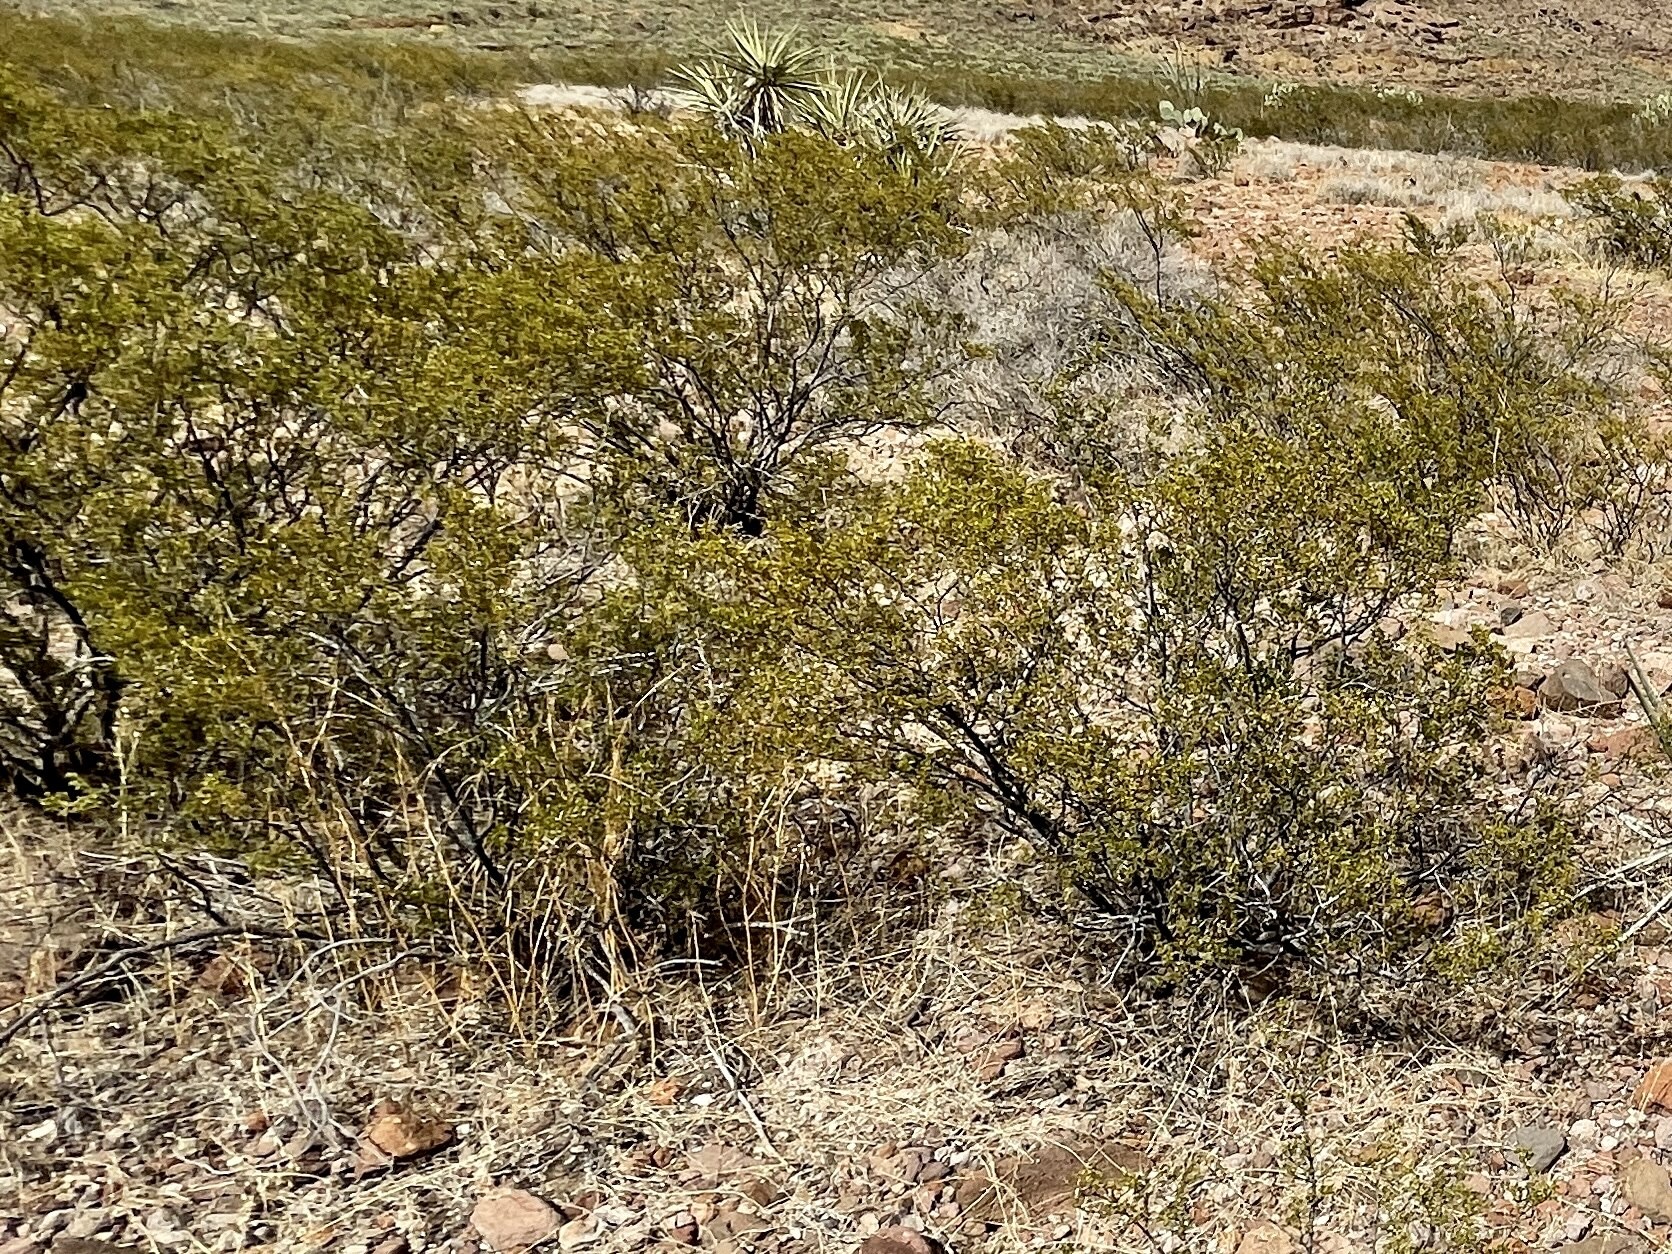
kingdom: Plantae
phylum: Tracheophyta
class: Magnoliopsida
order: Zygophyllales
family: Zygophyllaceae
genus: Larrea
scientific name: Larrea tridentata
